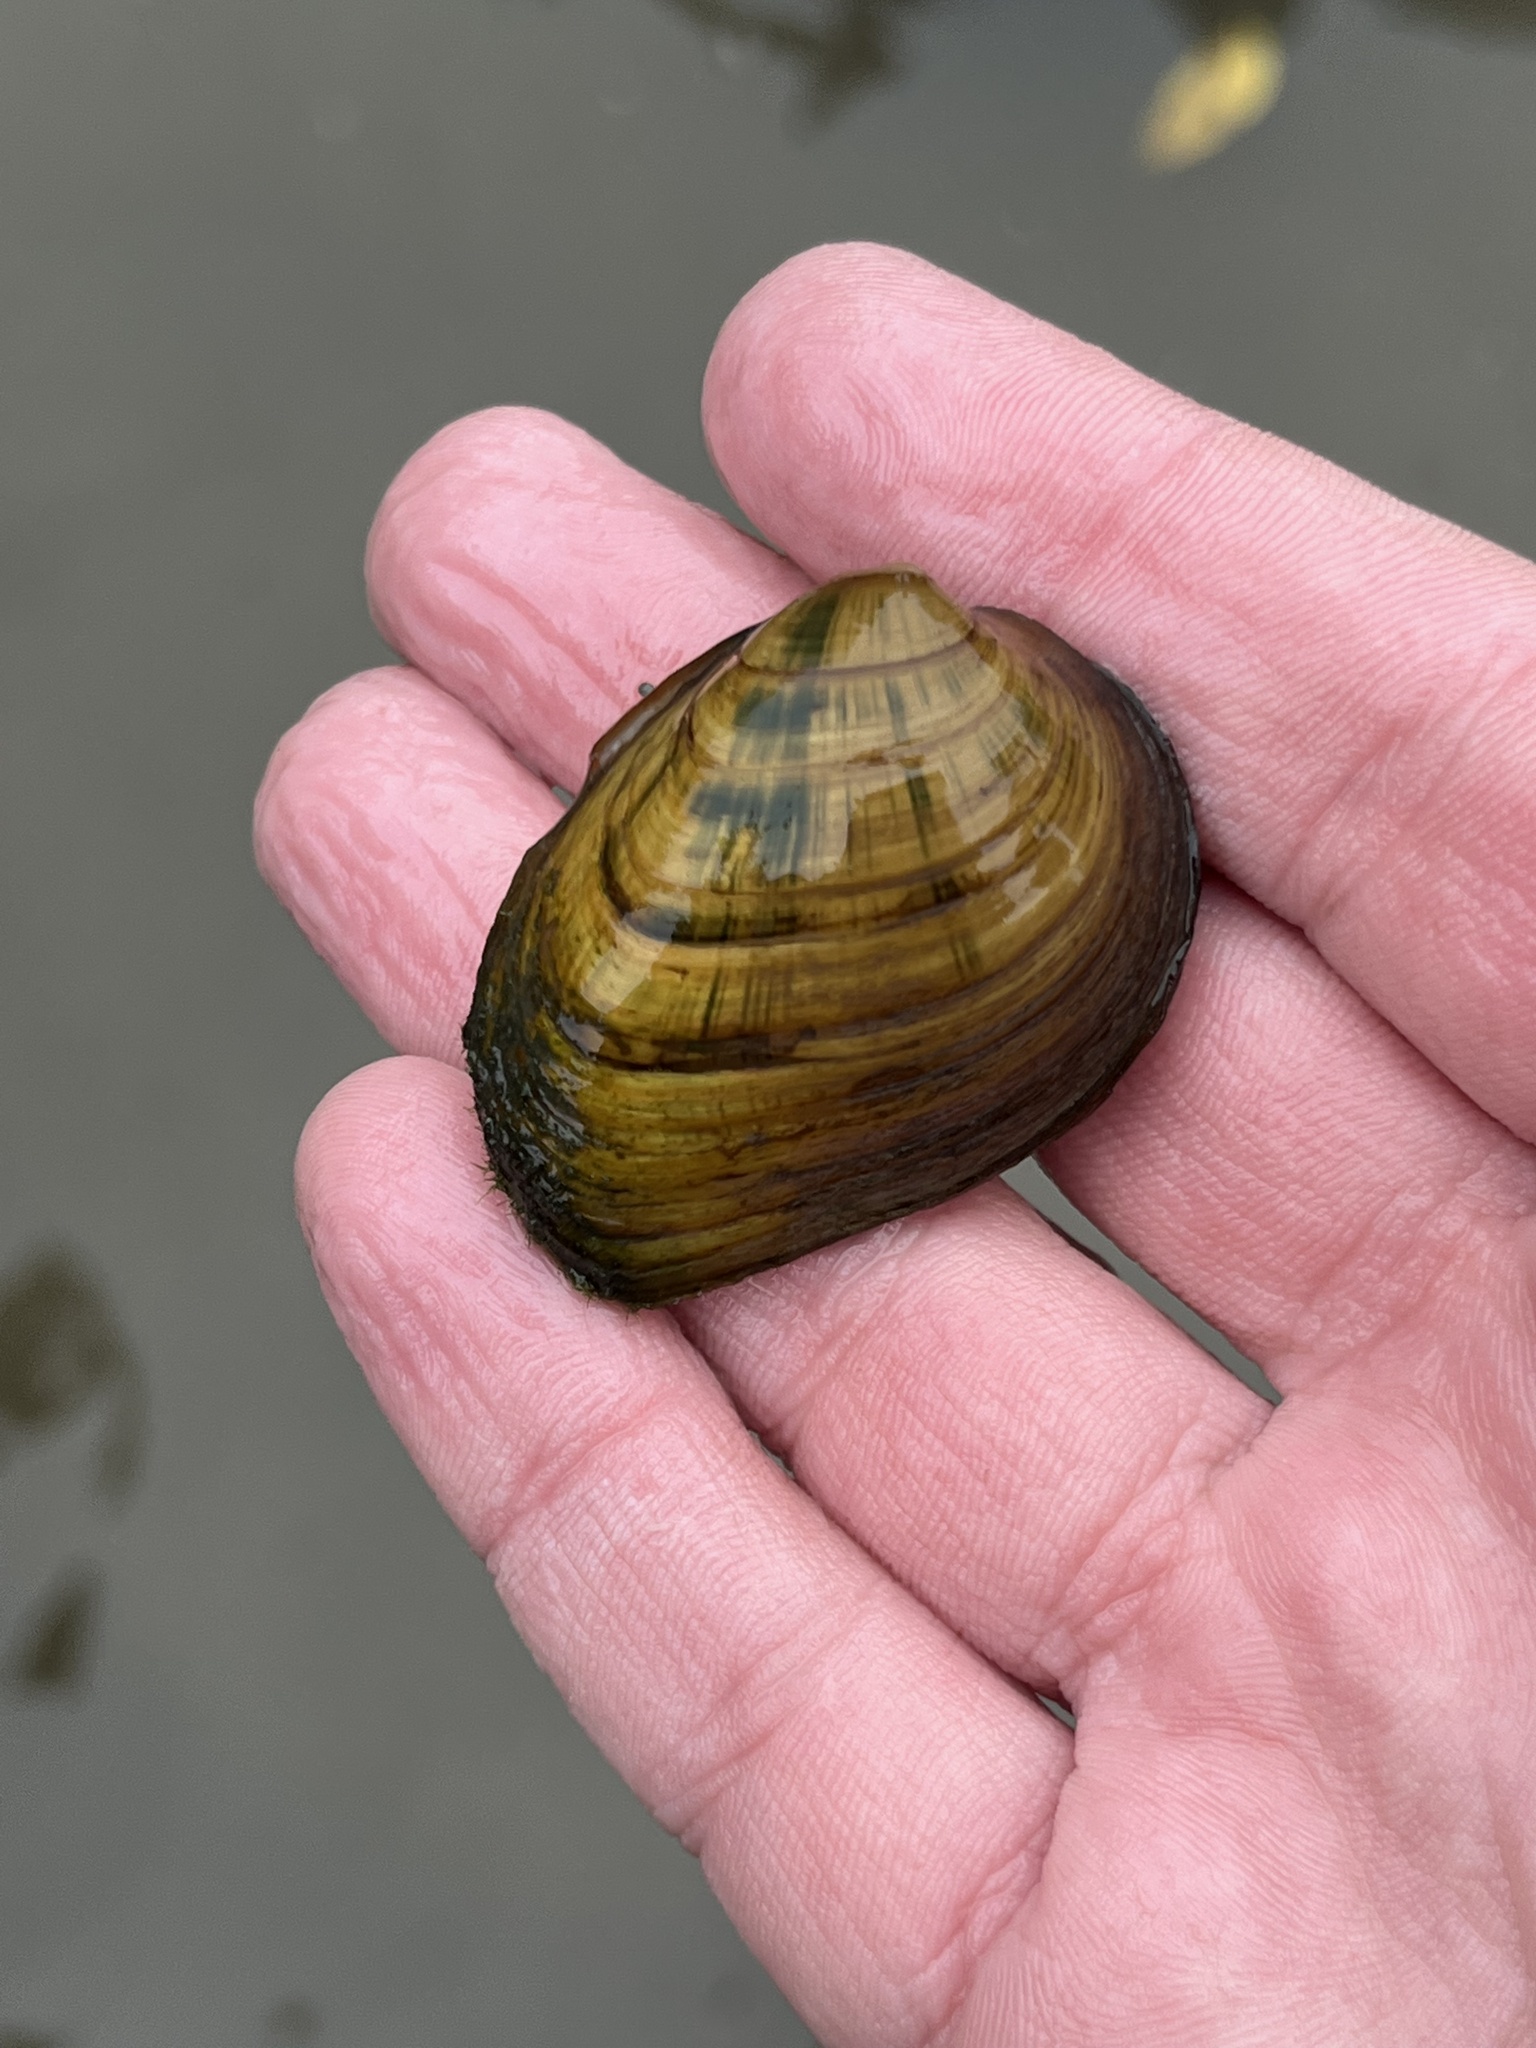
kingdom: Animalia
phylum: Mollusca
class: Bivalvia
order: Unionida
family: Unionidae
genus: Pleurobema
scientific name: Pleurobema clava
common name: Clubshell
